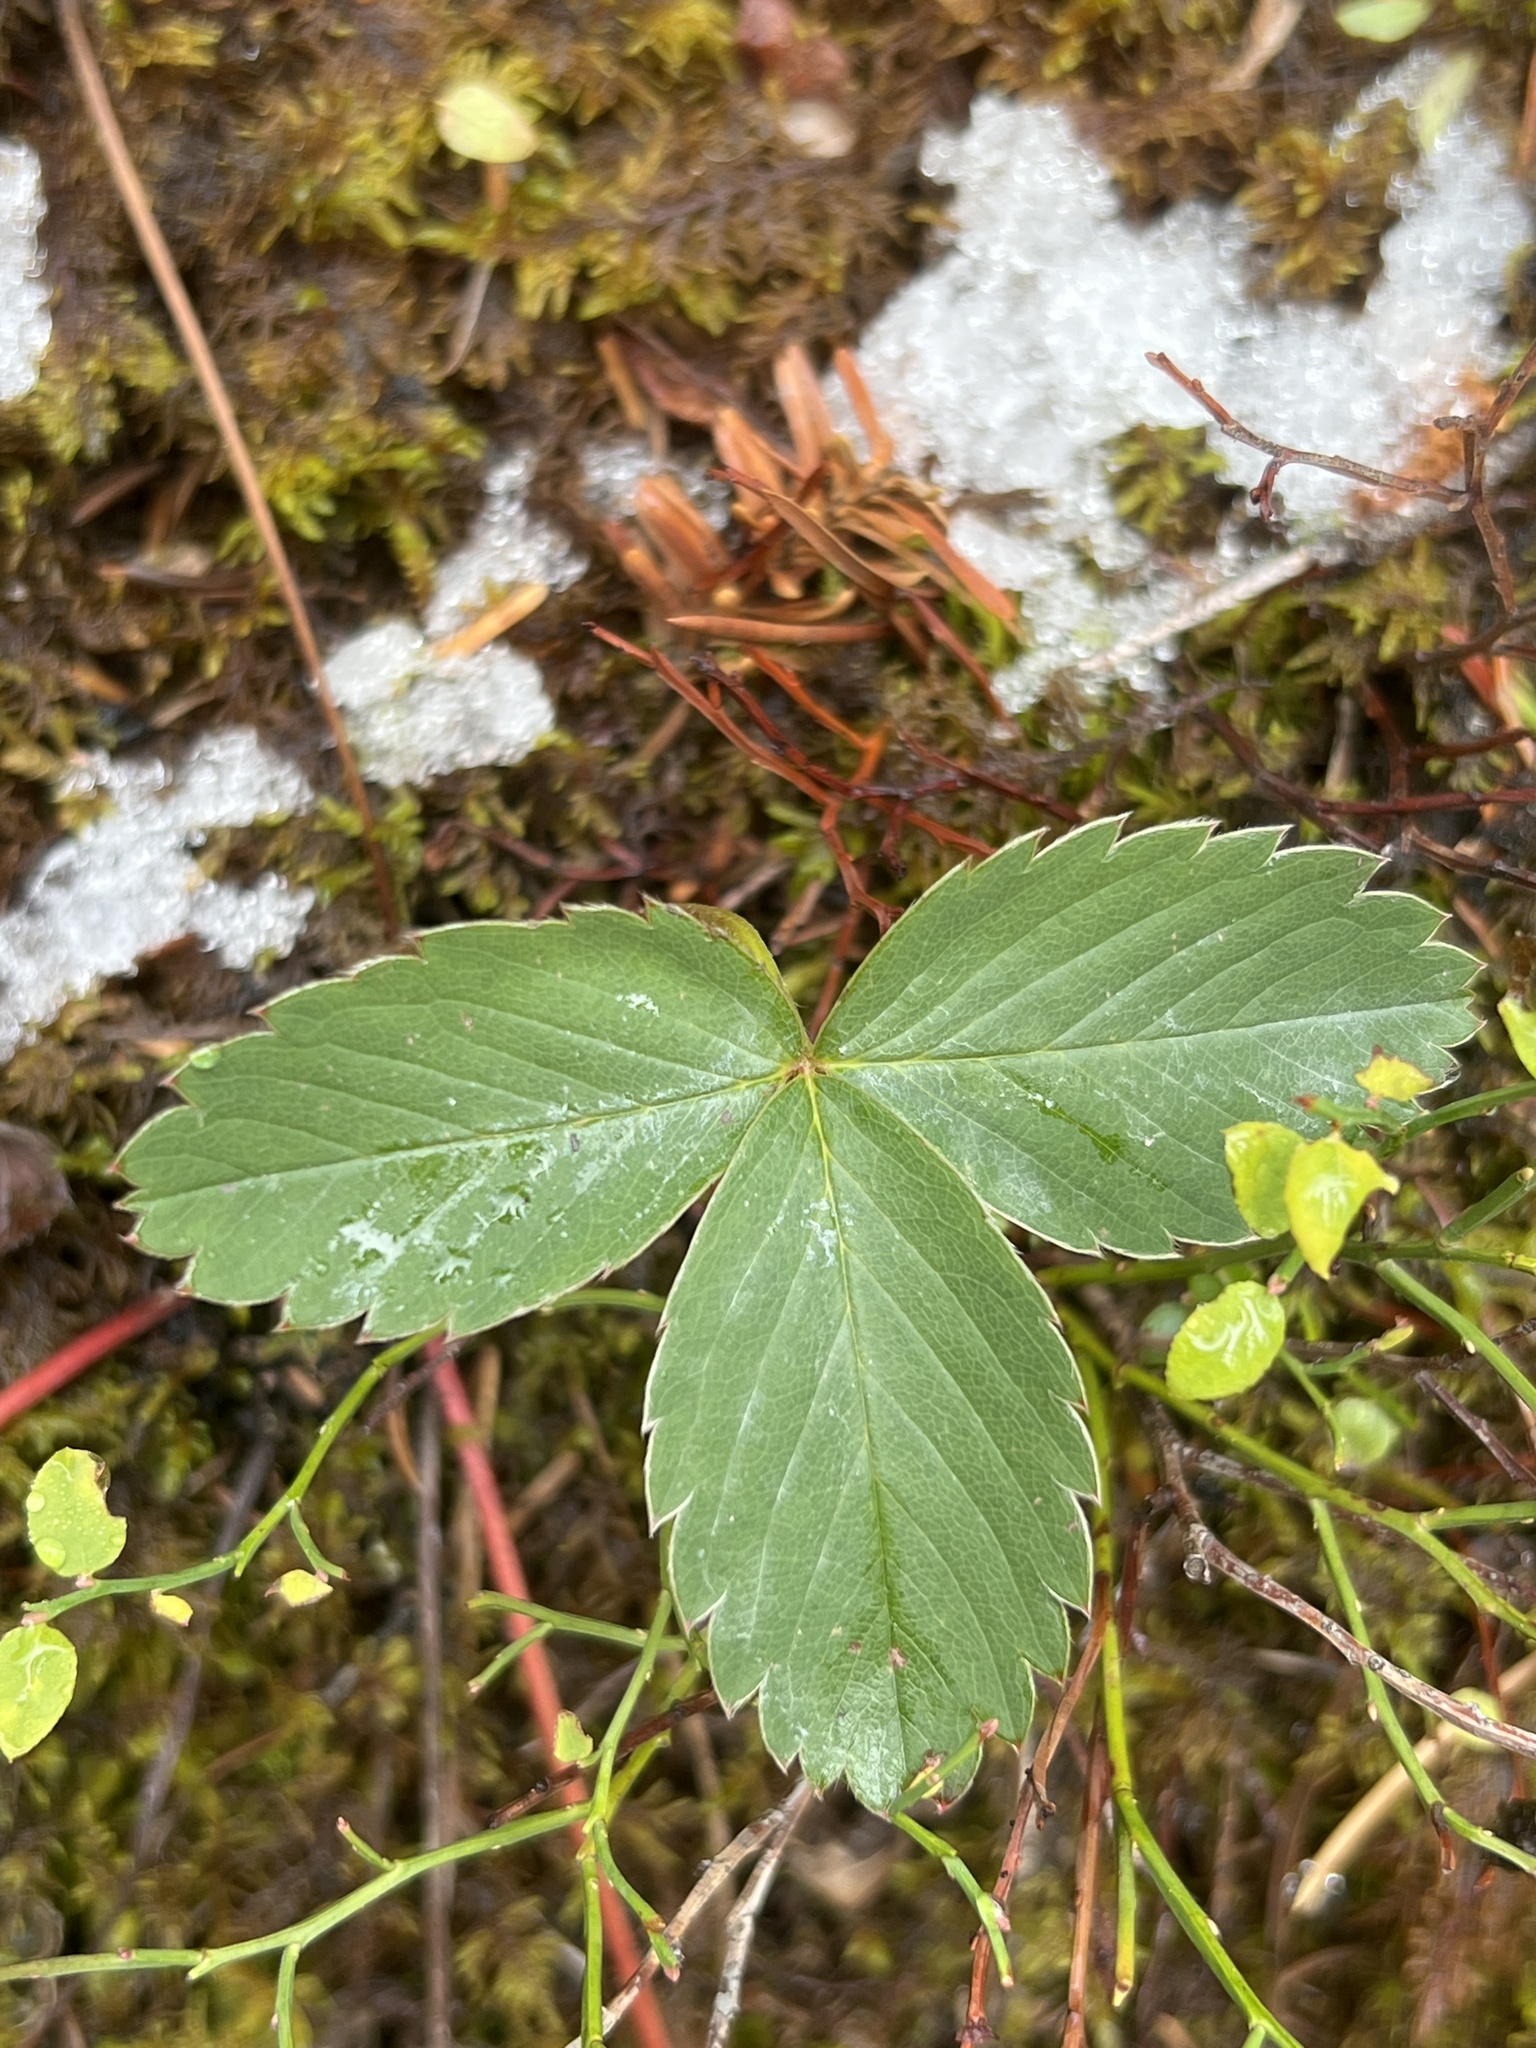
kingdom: Plantae
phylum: Tracheophyta
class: Magnoliopsida
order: Rosales
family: Rosaceae
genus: Fragaria
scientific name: Fragaria virginiana
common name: Thickleaved wild strawberry
